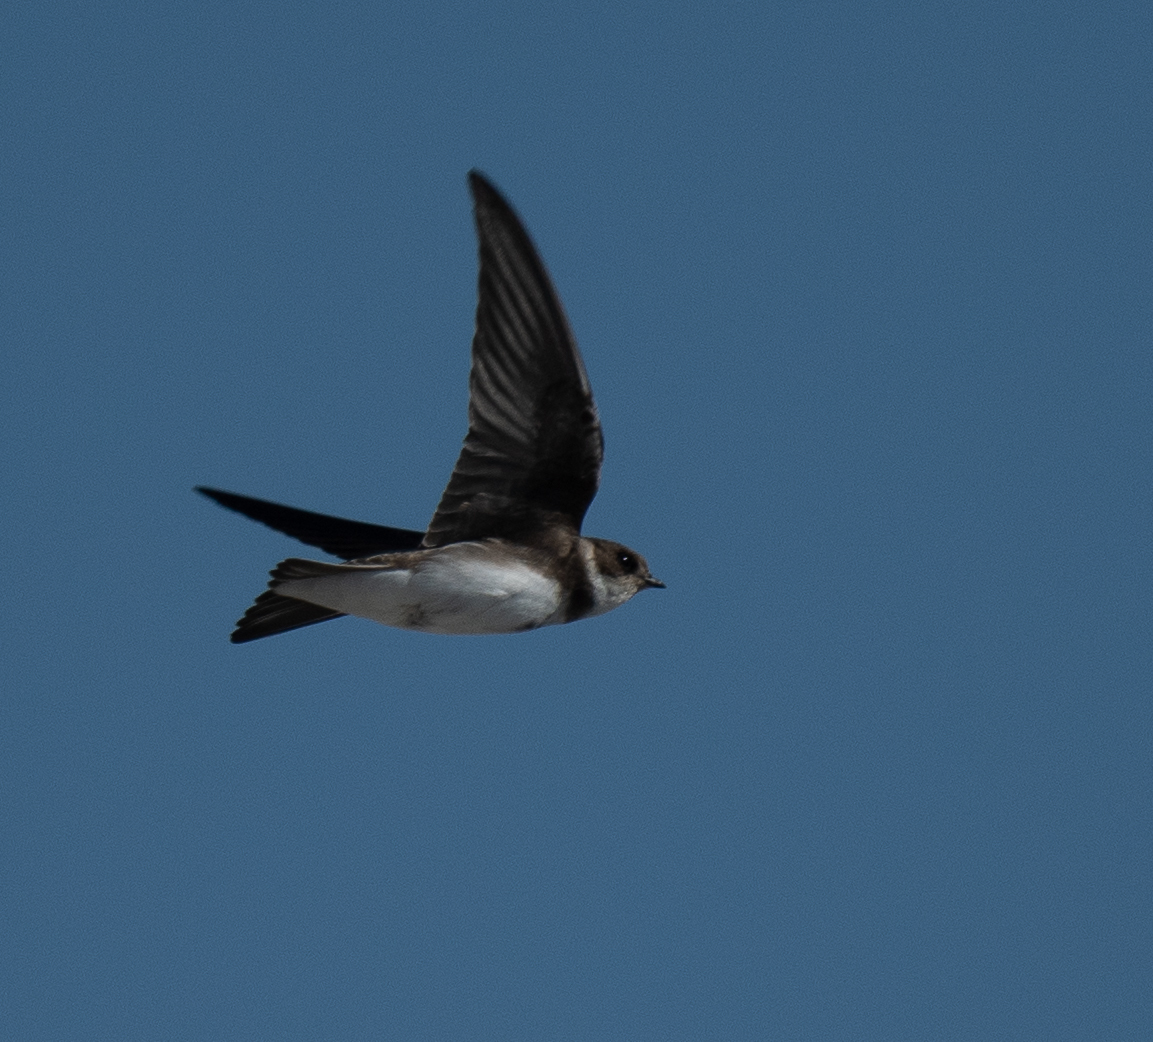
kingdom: Animalia
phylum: Chordata
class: Aves
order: Passeriformes
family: Hirundinidae
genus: Riparia
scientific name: Riparia riparia
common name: Sand martin
